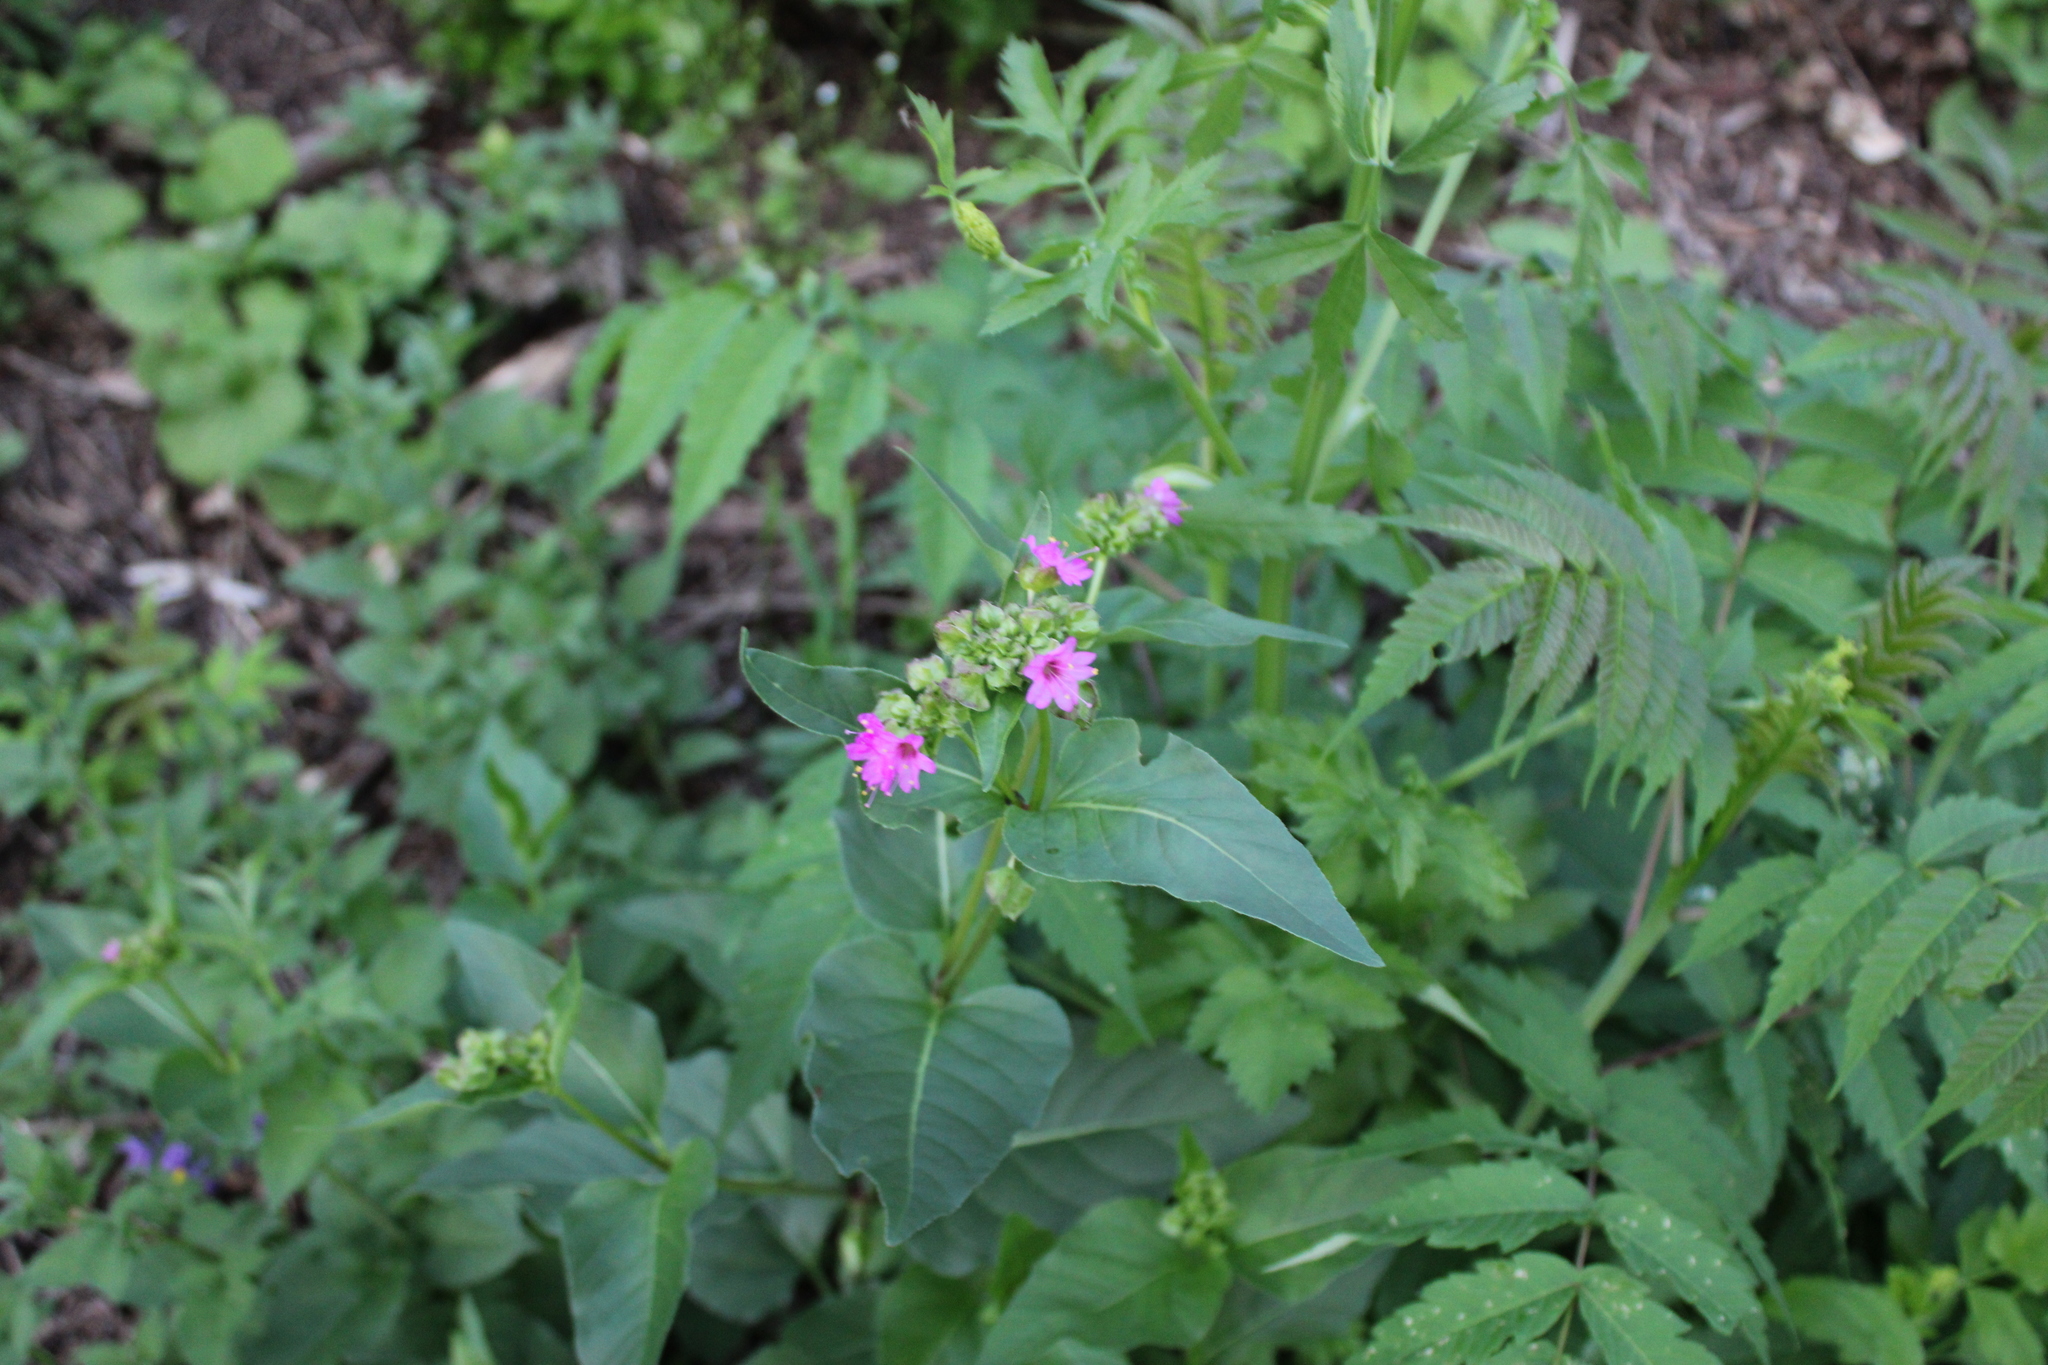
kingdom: Plantae
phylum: Tracheophyta
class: Magnoliopsida
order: Caryophyllales
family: Nyctaginaceae
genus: Mirabilis
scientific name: Mirabilis nyctaginea
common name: Umbrella wort
